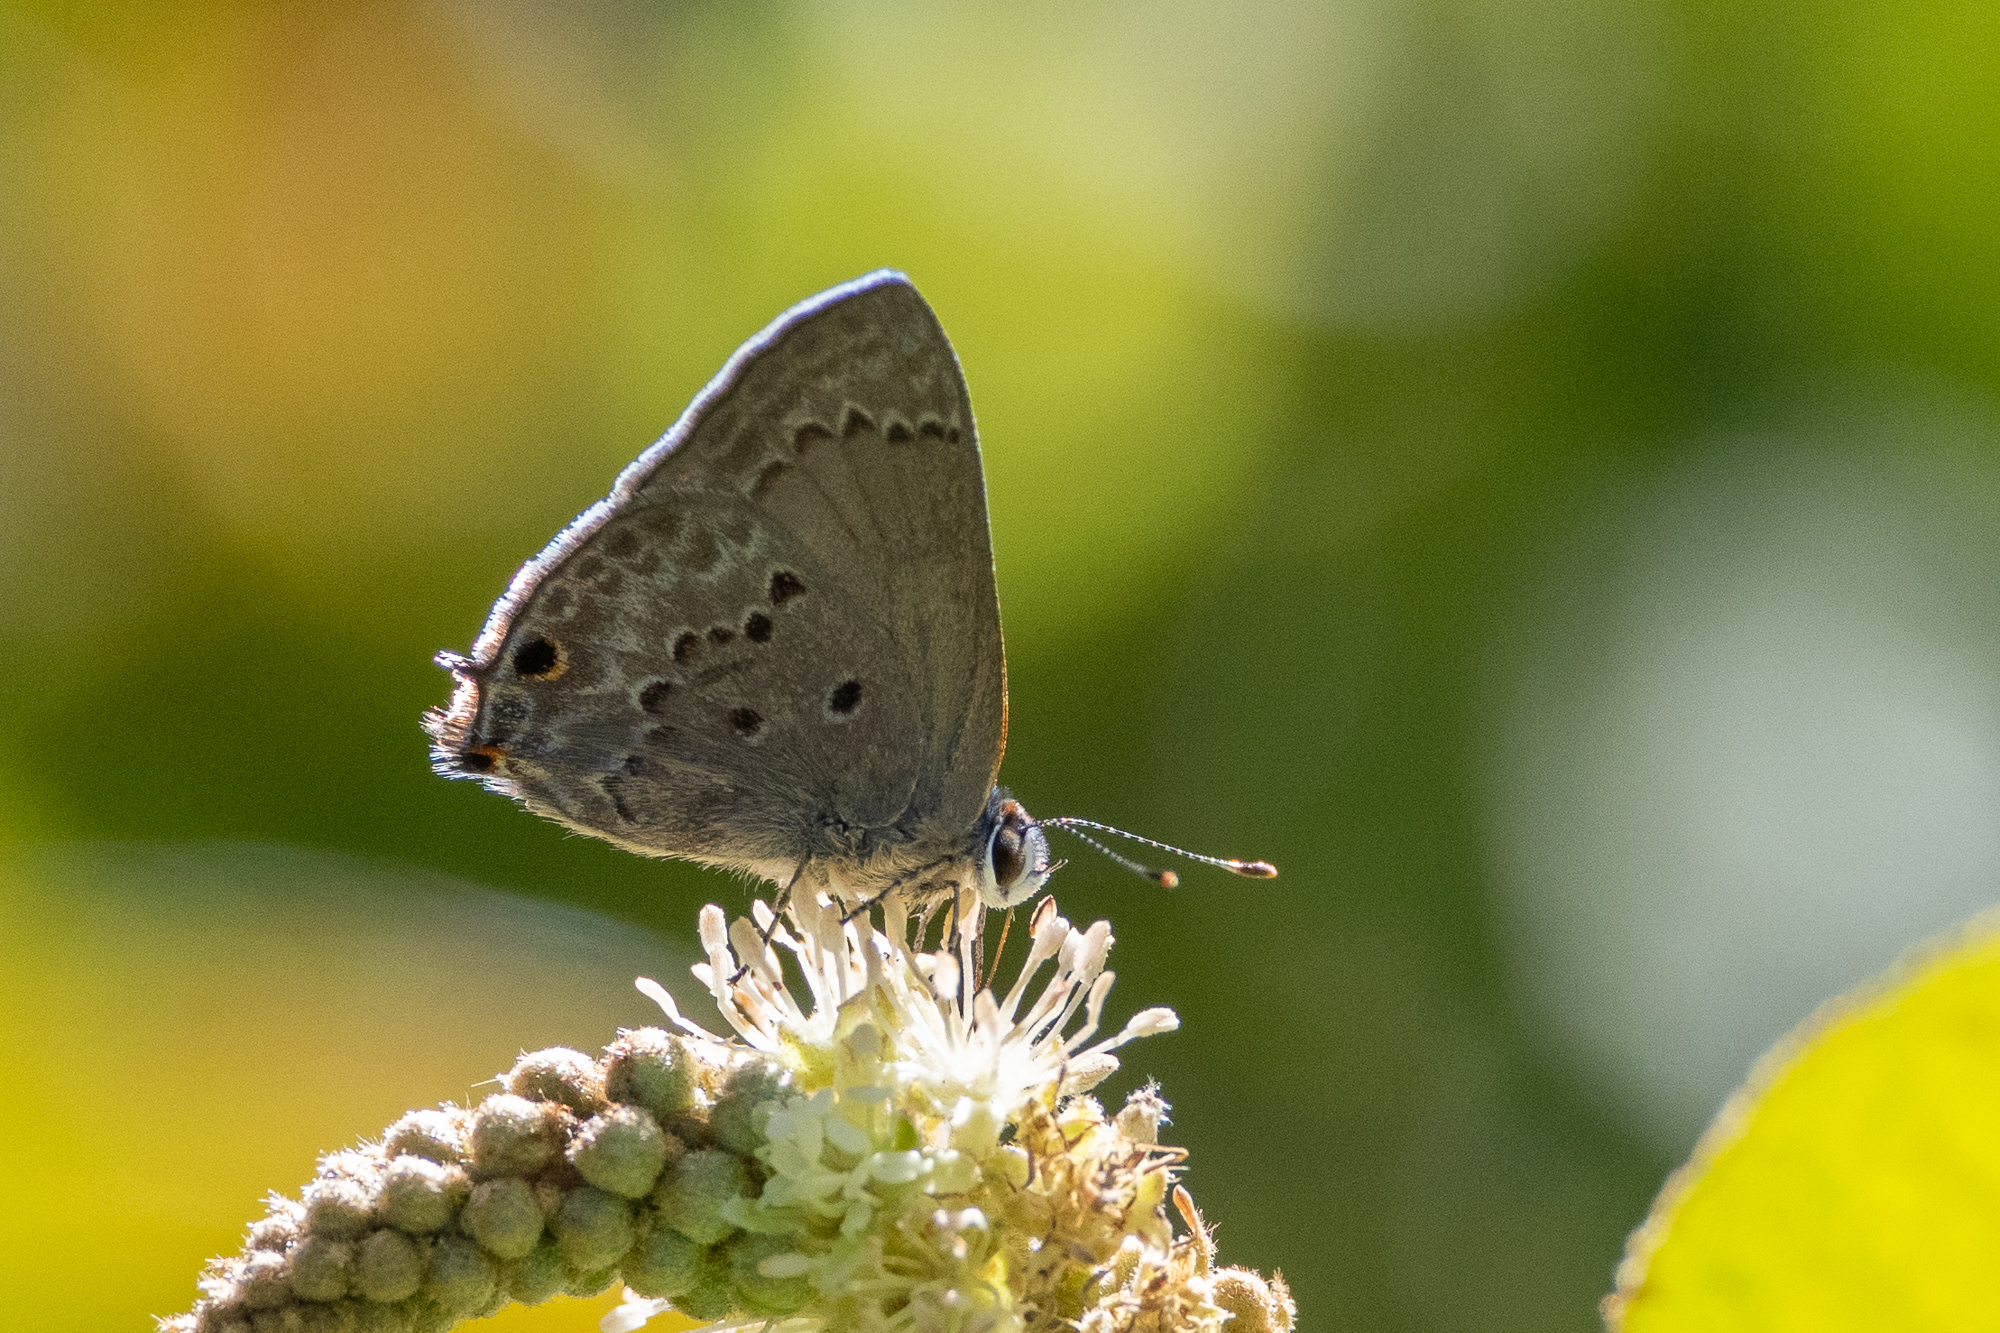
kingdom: Animalia
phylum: Arthropoda
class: Insecta
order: Lepidoptera
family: Lycaenidae
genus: Callicista
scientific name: Callicista columella
